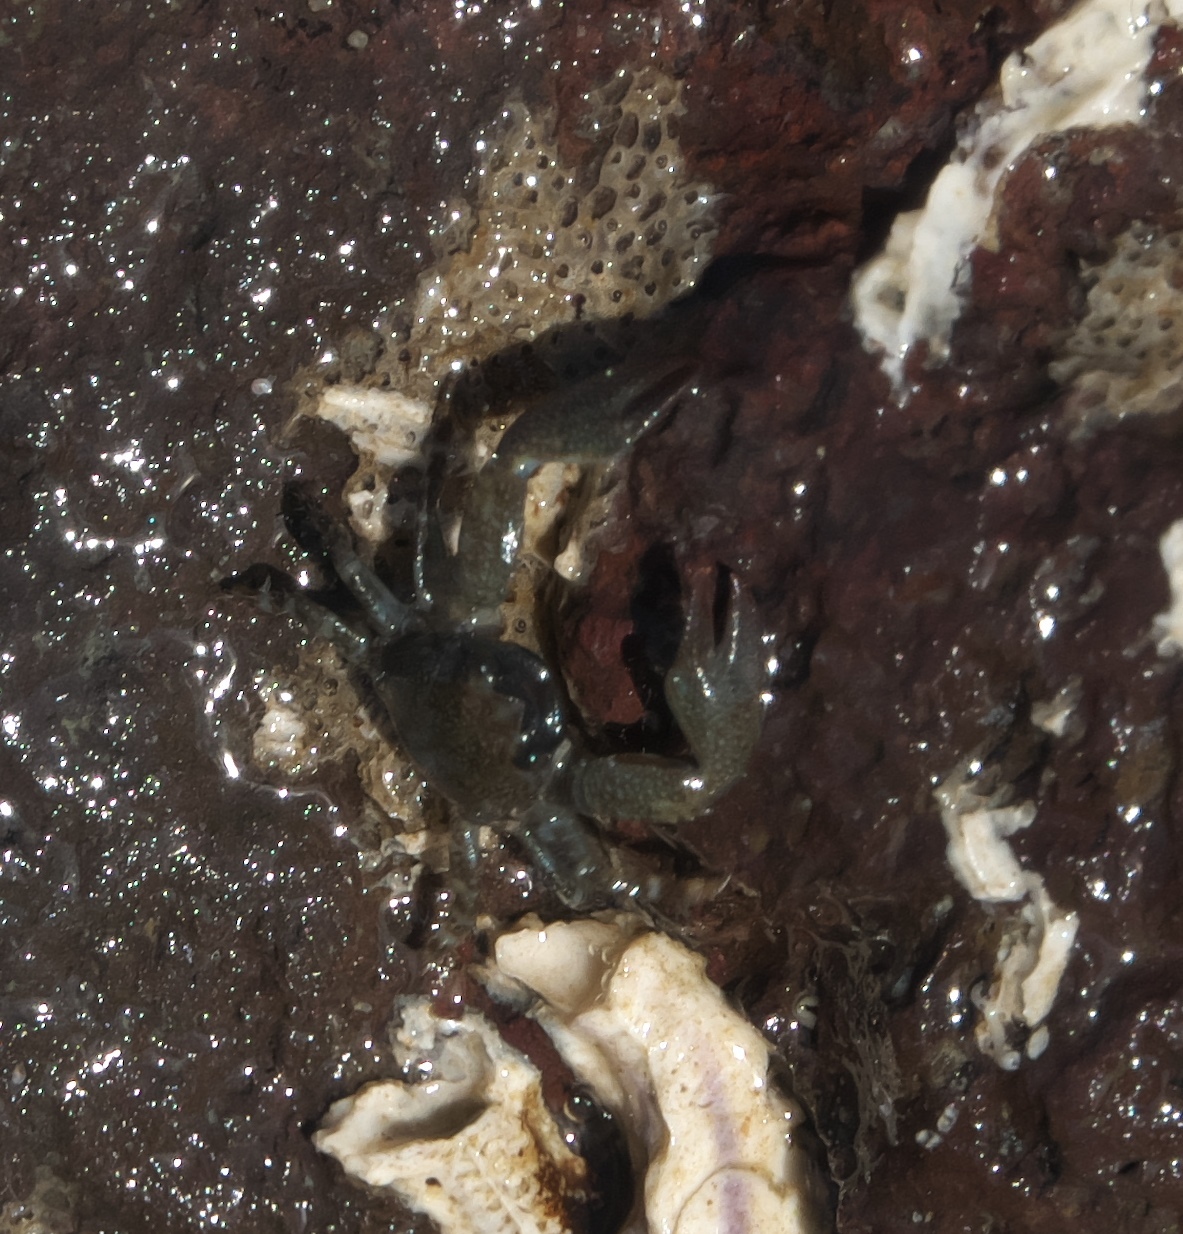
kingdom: Animalia
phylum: Arthropoda
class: Malacostraca
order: Decapoda
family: Porcellanidae
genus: Petrolisthes
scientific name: Petrolisthes elongatus
